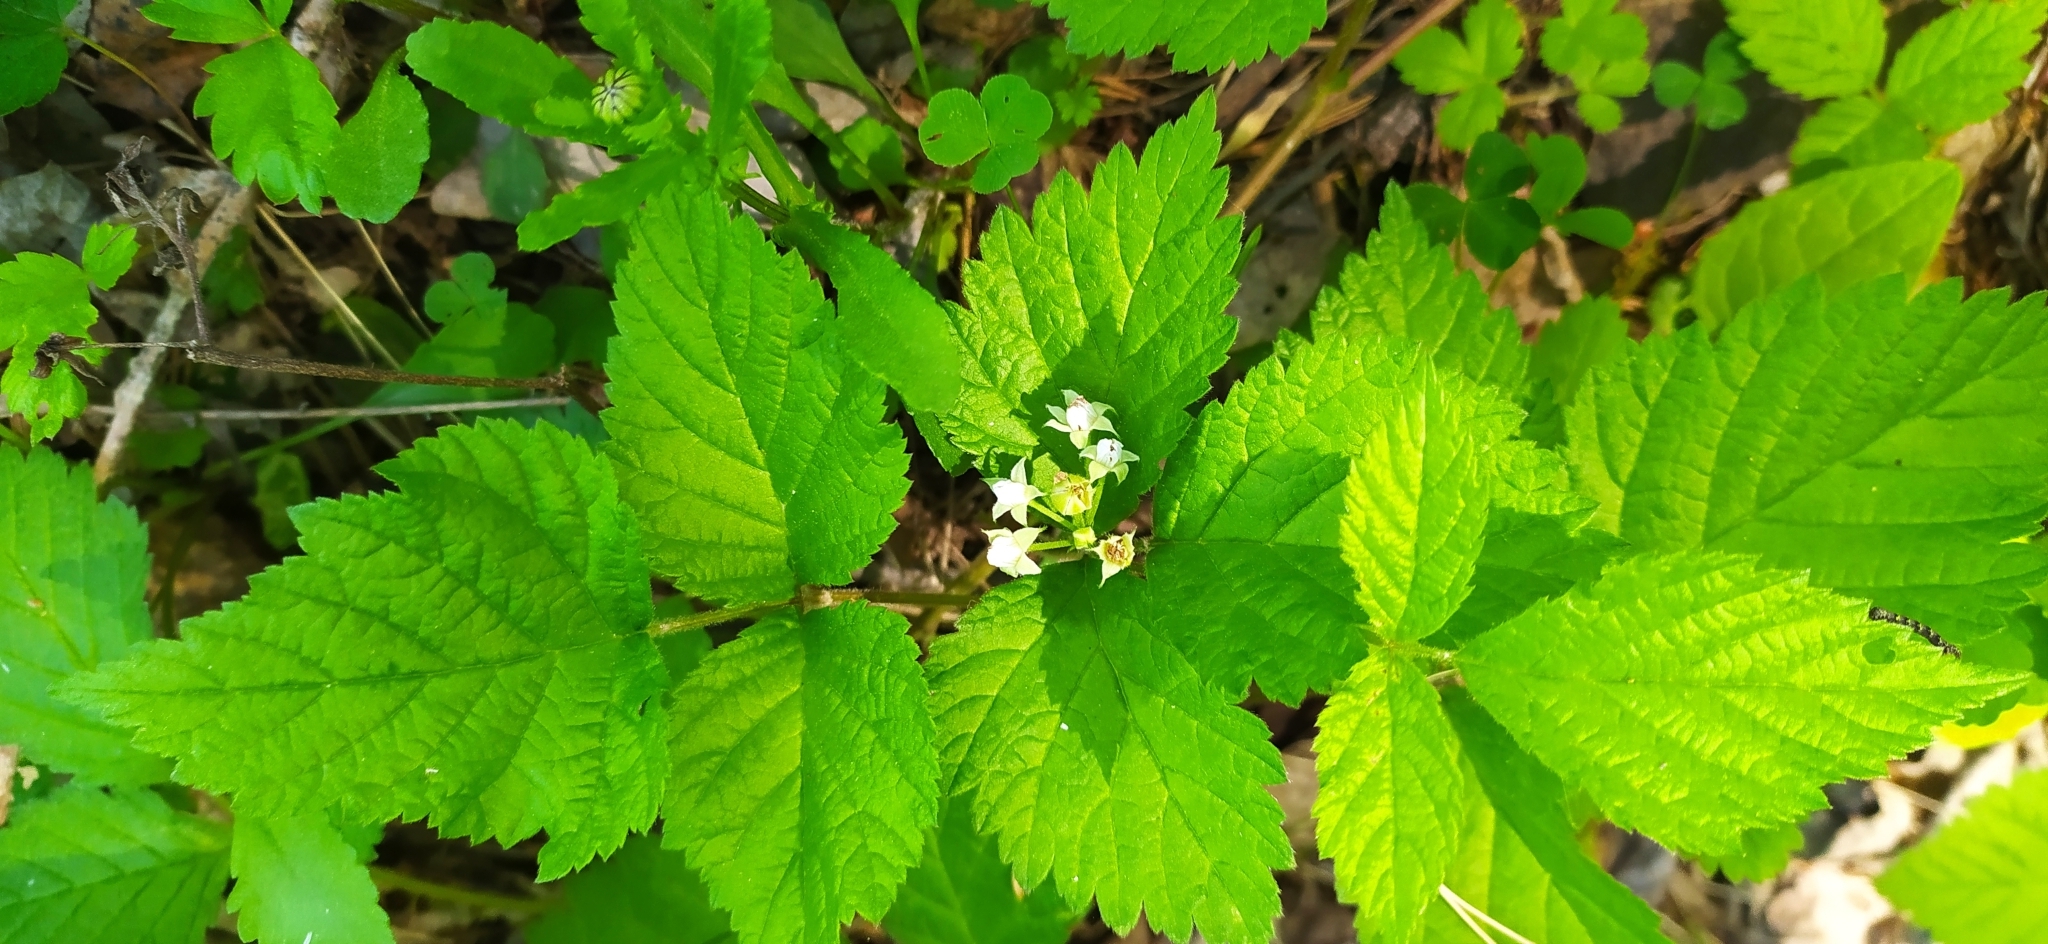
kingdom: Plantae
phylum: Tracheophyta
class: Magnoliopsida
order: Rosales
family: Rosaceae
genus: Rubus
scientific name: Rubus saxatilis
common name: Stone bramble
